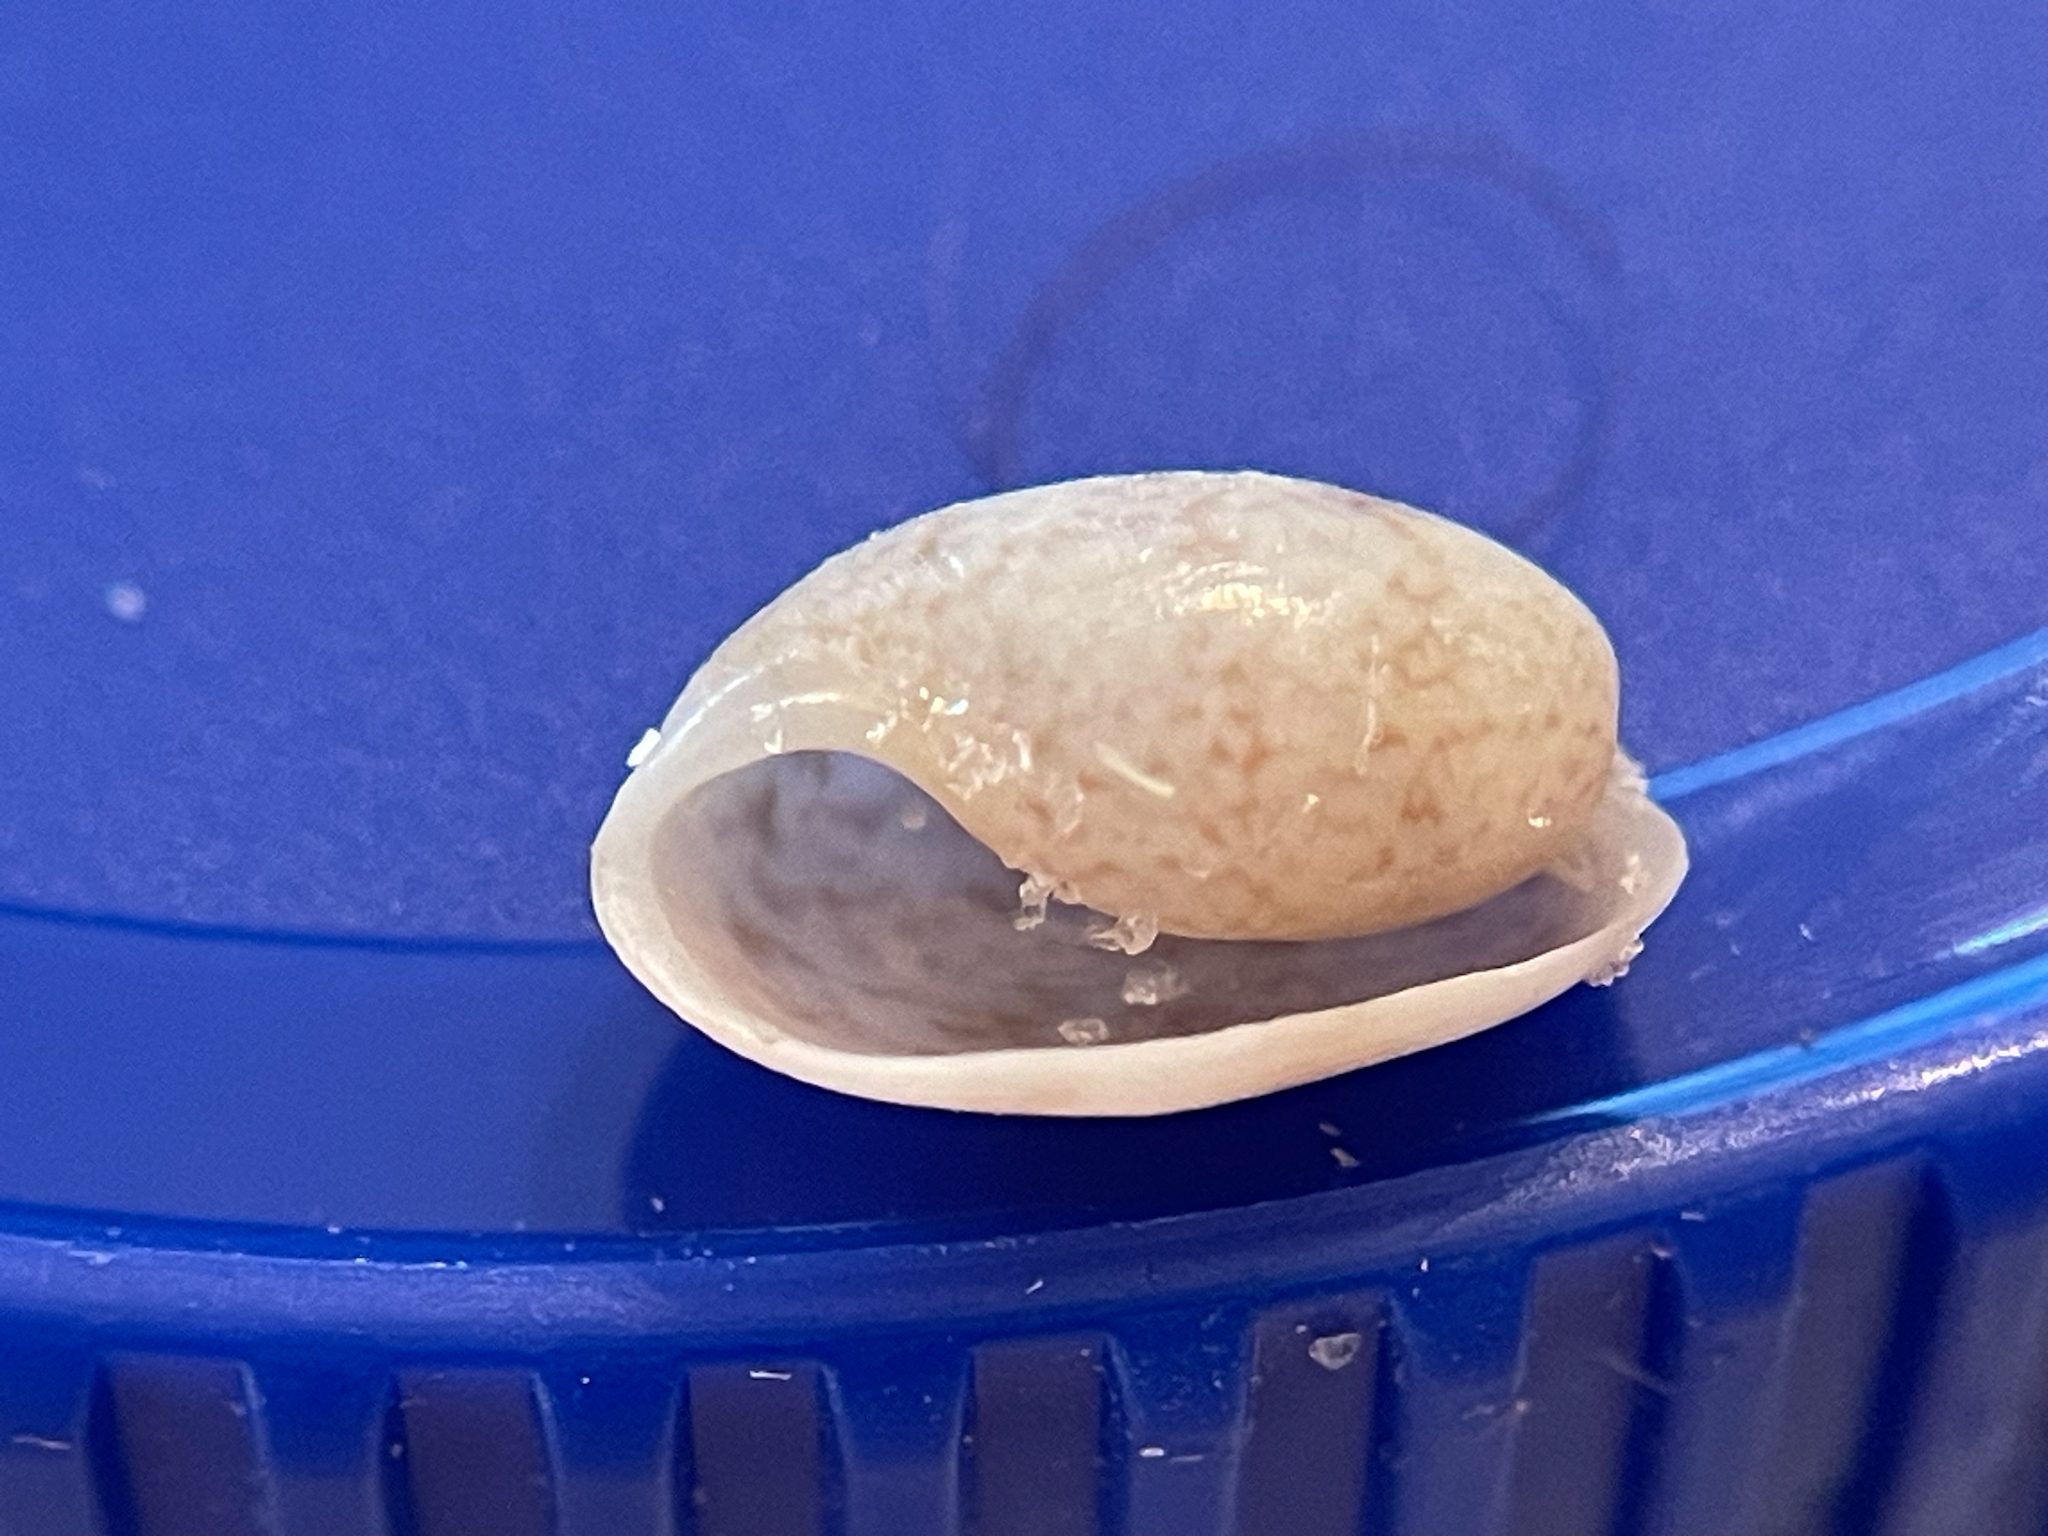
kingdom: Animalia
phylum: Mollusca
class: Gastropoda
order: Cephalaspidea
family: Bullidae
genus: Bulla
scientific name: Bulla occidentalis
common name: Common west-indian bubble
